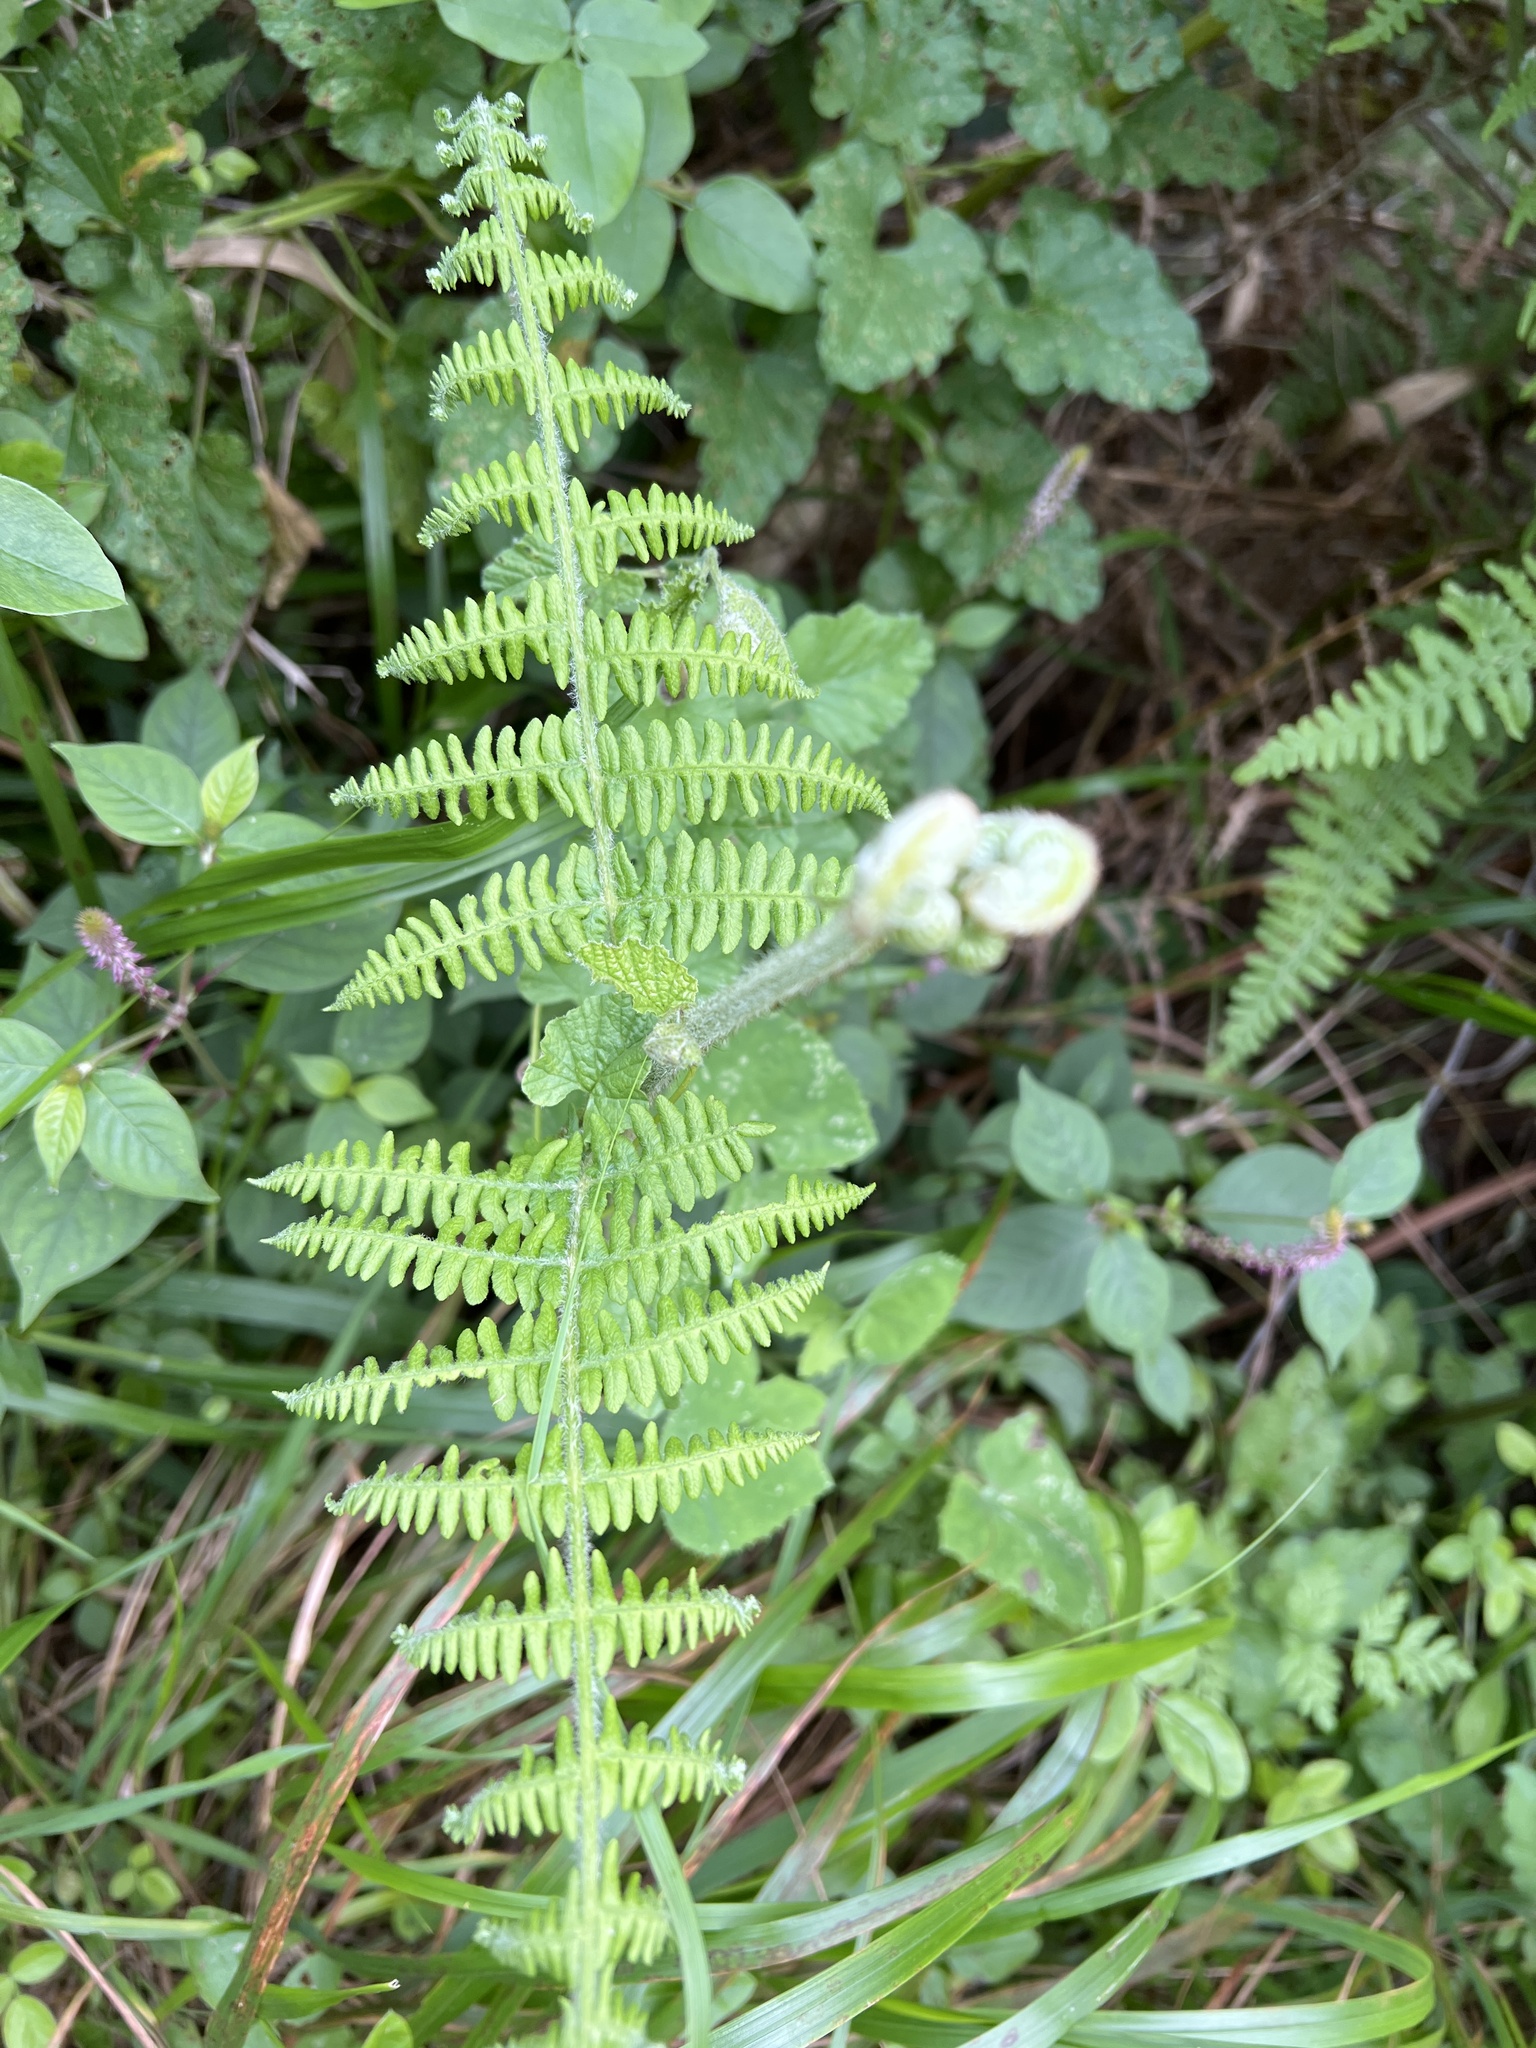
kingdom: Plantae
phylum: Tracheophyta
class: Polypodiopsida
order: Polypodiales
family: Dennstaedtiaceae
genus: Pteridium
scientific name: Pteridium aquilinum
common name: Bracken
